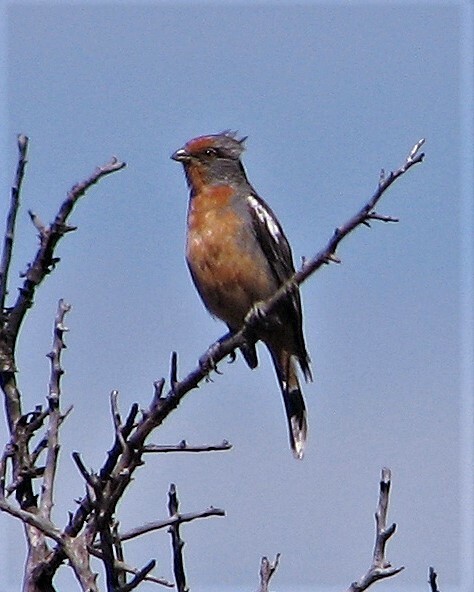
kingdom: Animalia
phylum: Chordata
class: Aves
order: Passeriformes
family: Cotingidae
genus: Phytotoma
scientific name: Phytotoma rutila
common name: White-tipped plantcutter
